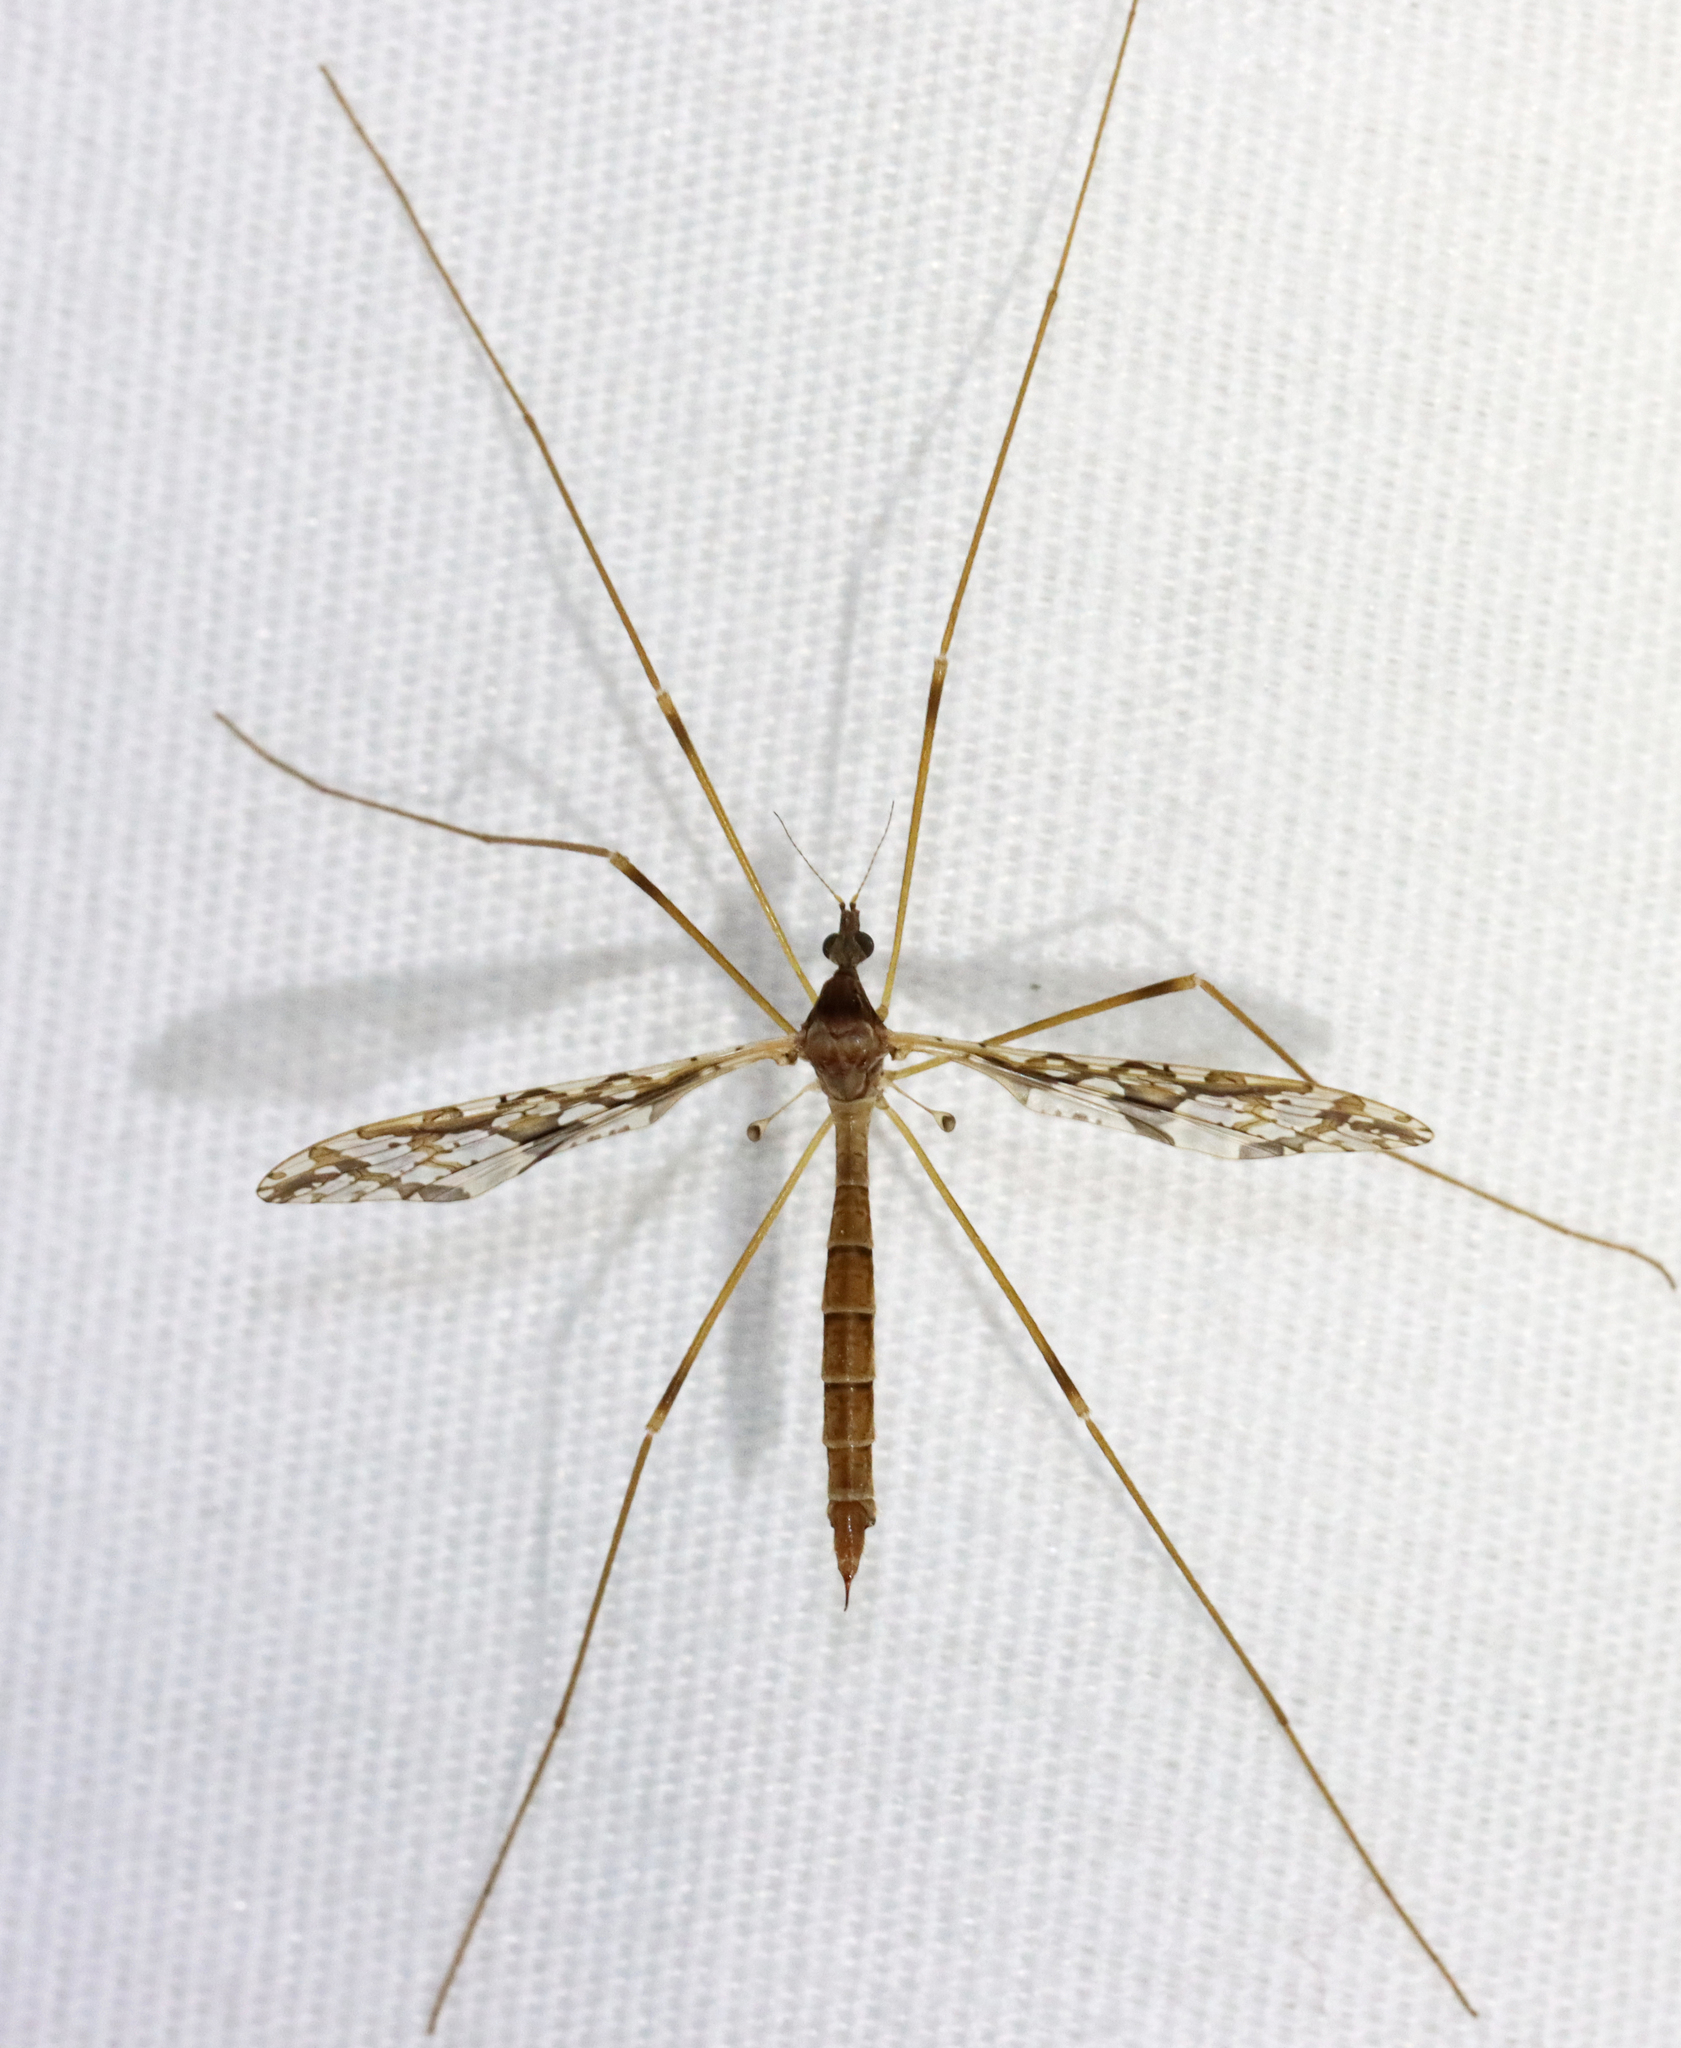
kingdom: Animalia
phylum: Arthropoda
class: Insecta
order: Diptera
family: Limoniidae
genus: Epiphragma
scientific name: Epiphragma solatrix
